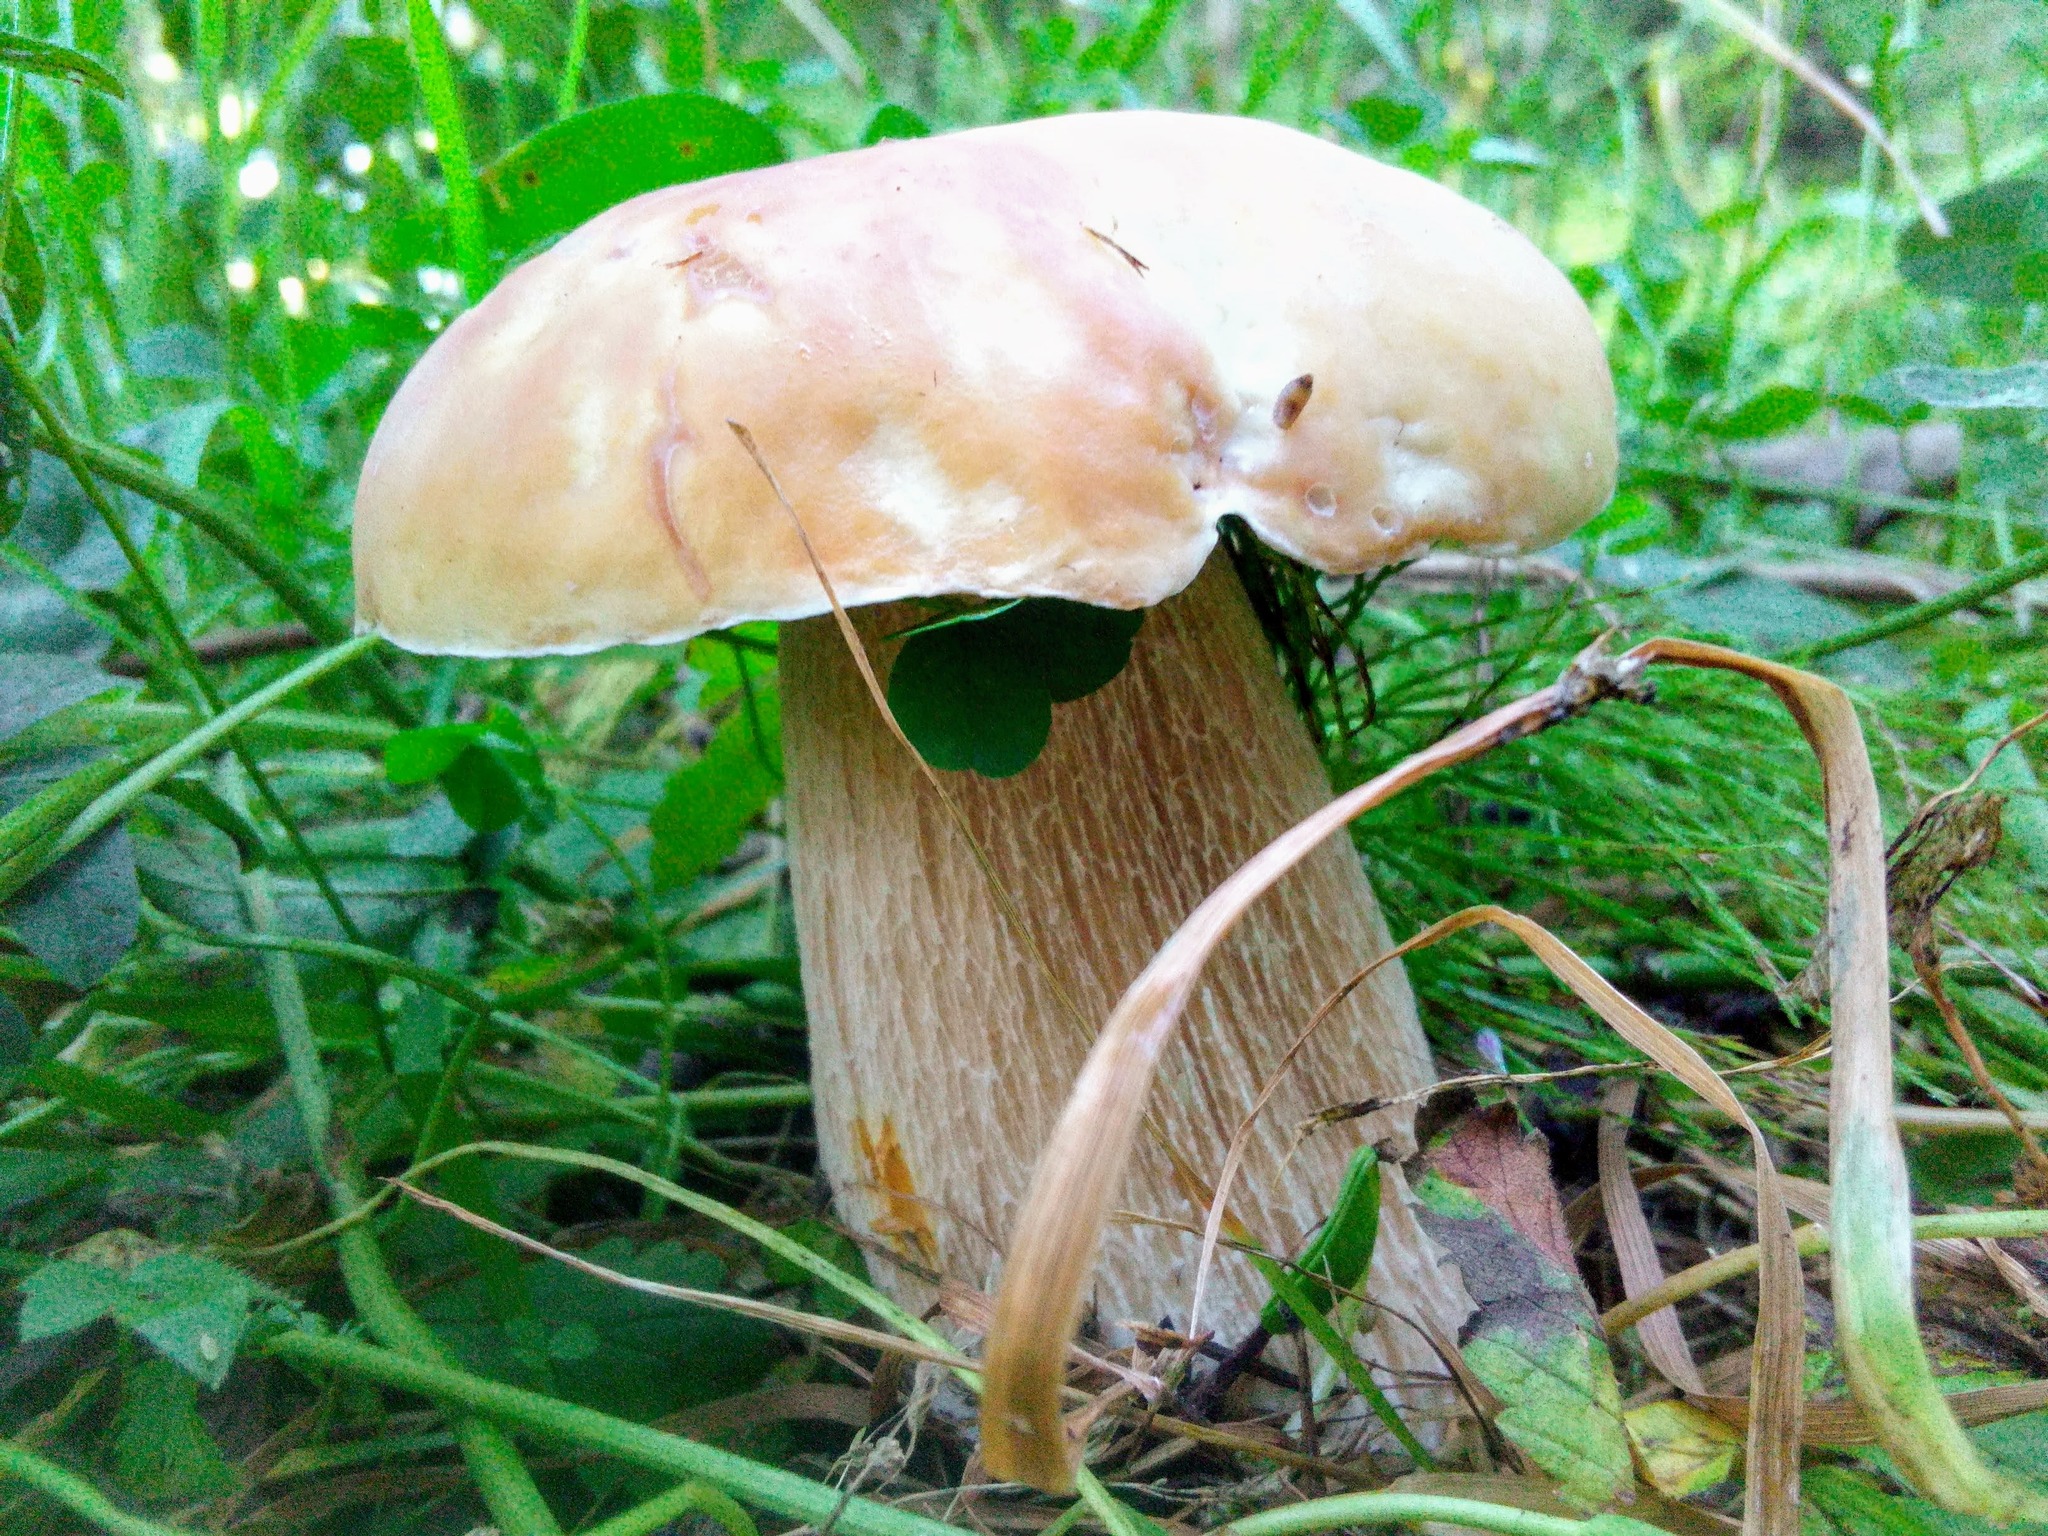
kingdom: Fungi
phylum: Basidiomycota
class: Agaricomycetes
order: Boletales
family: Boletaceae
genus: Boletus
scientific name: Boletus edulis
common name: Cep
